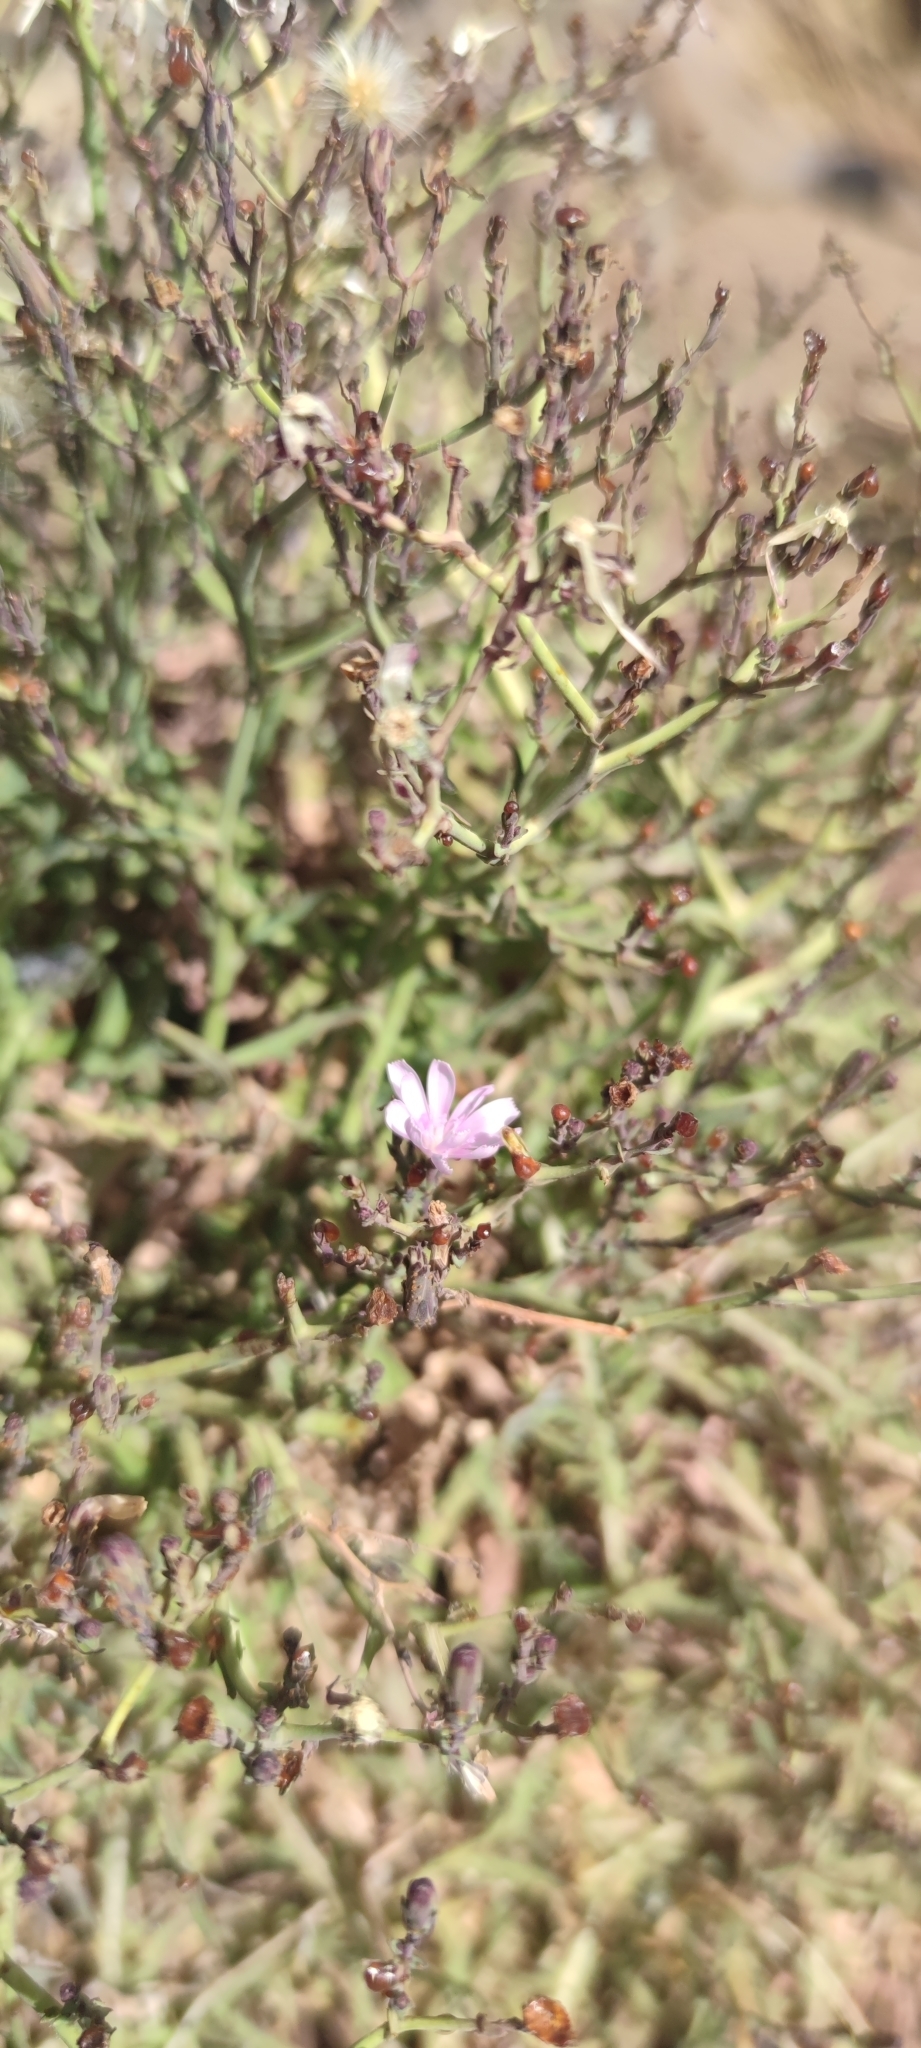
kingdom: Plantae
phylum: Tracheophyta
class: Magnoliopsida
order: Asterales
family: Asteraceae
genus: Lactuca
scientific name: Lactuca palmensis
